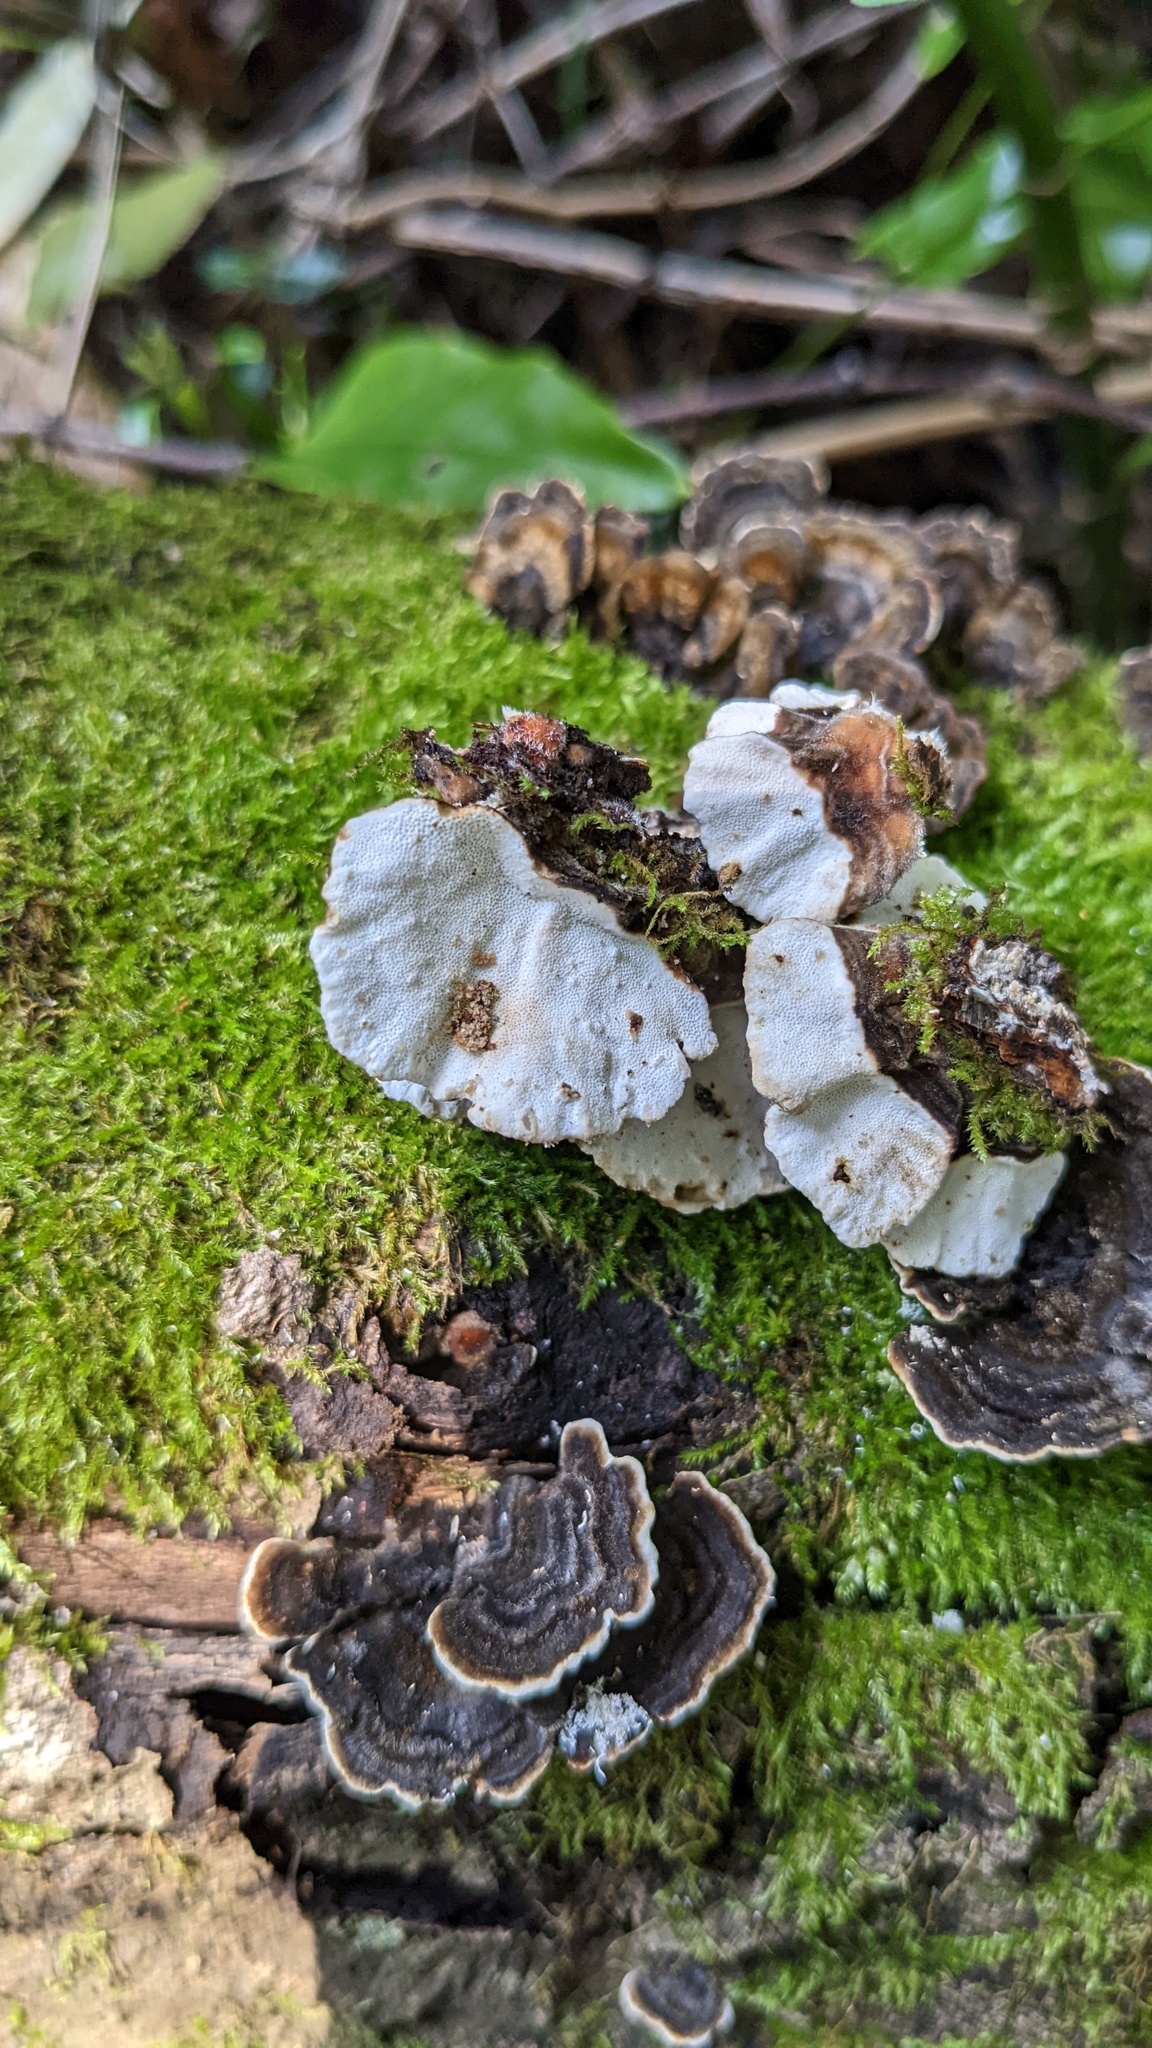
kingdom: Fungi
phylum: Basidiomycota
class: Agaricomycetes
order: Polyporales
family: Polyporaceae
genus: Trametes
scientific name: Trametes versicolor
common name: Turkeytail
